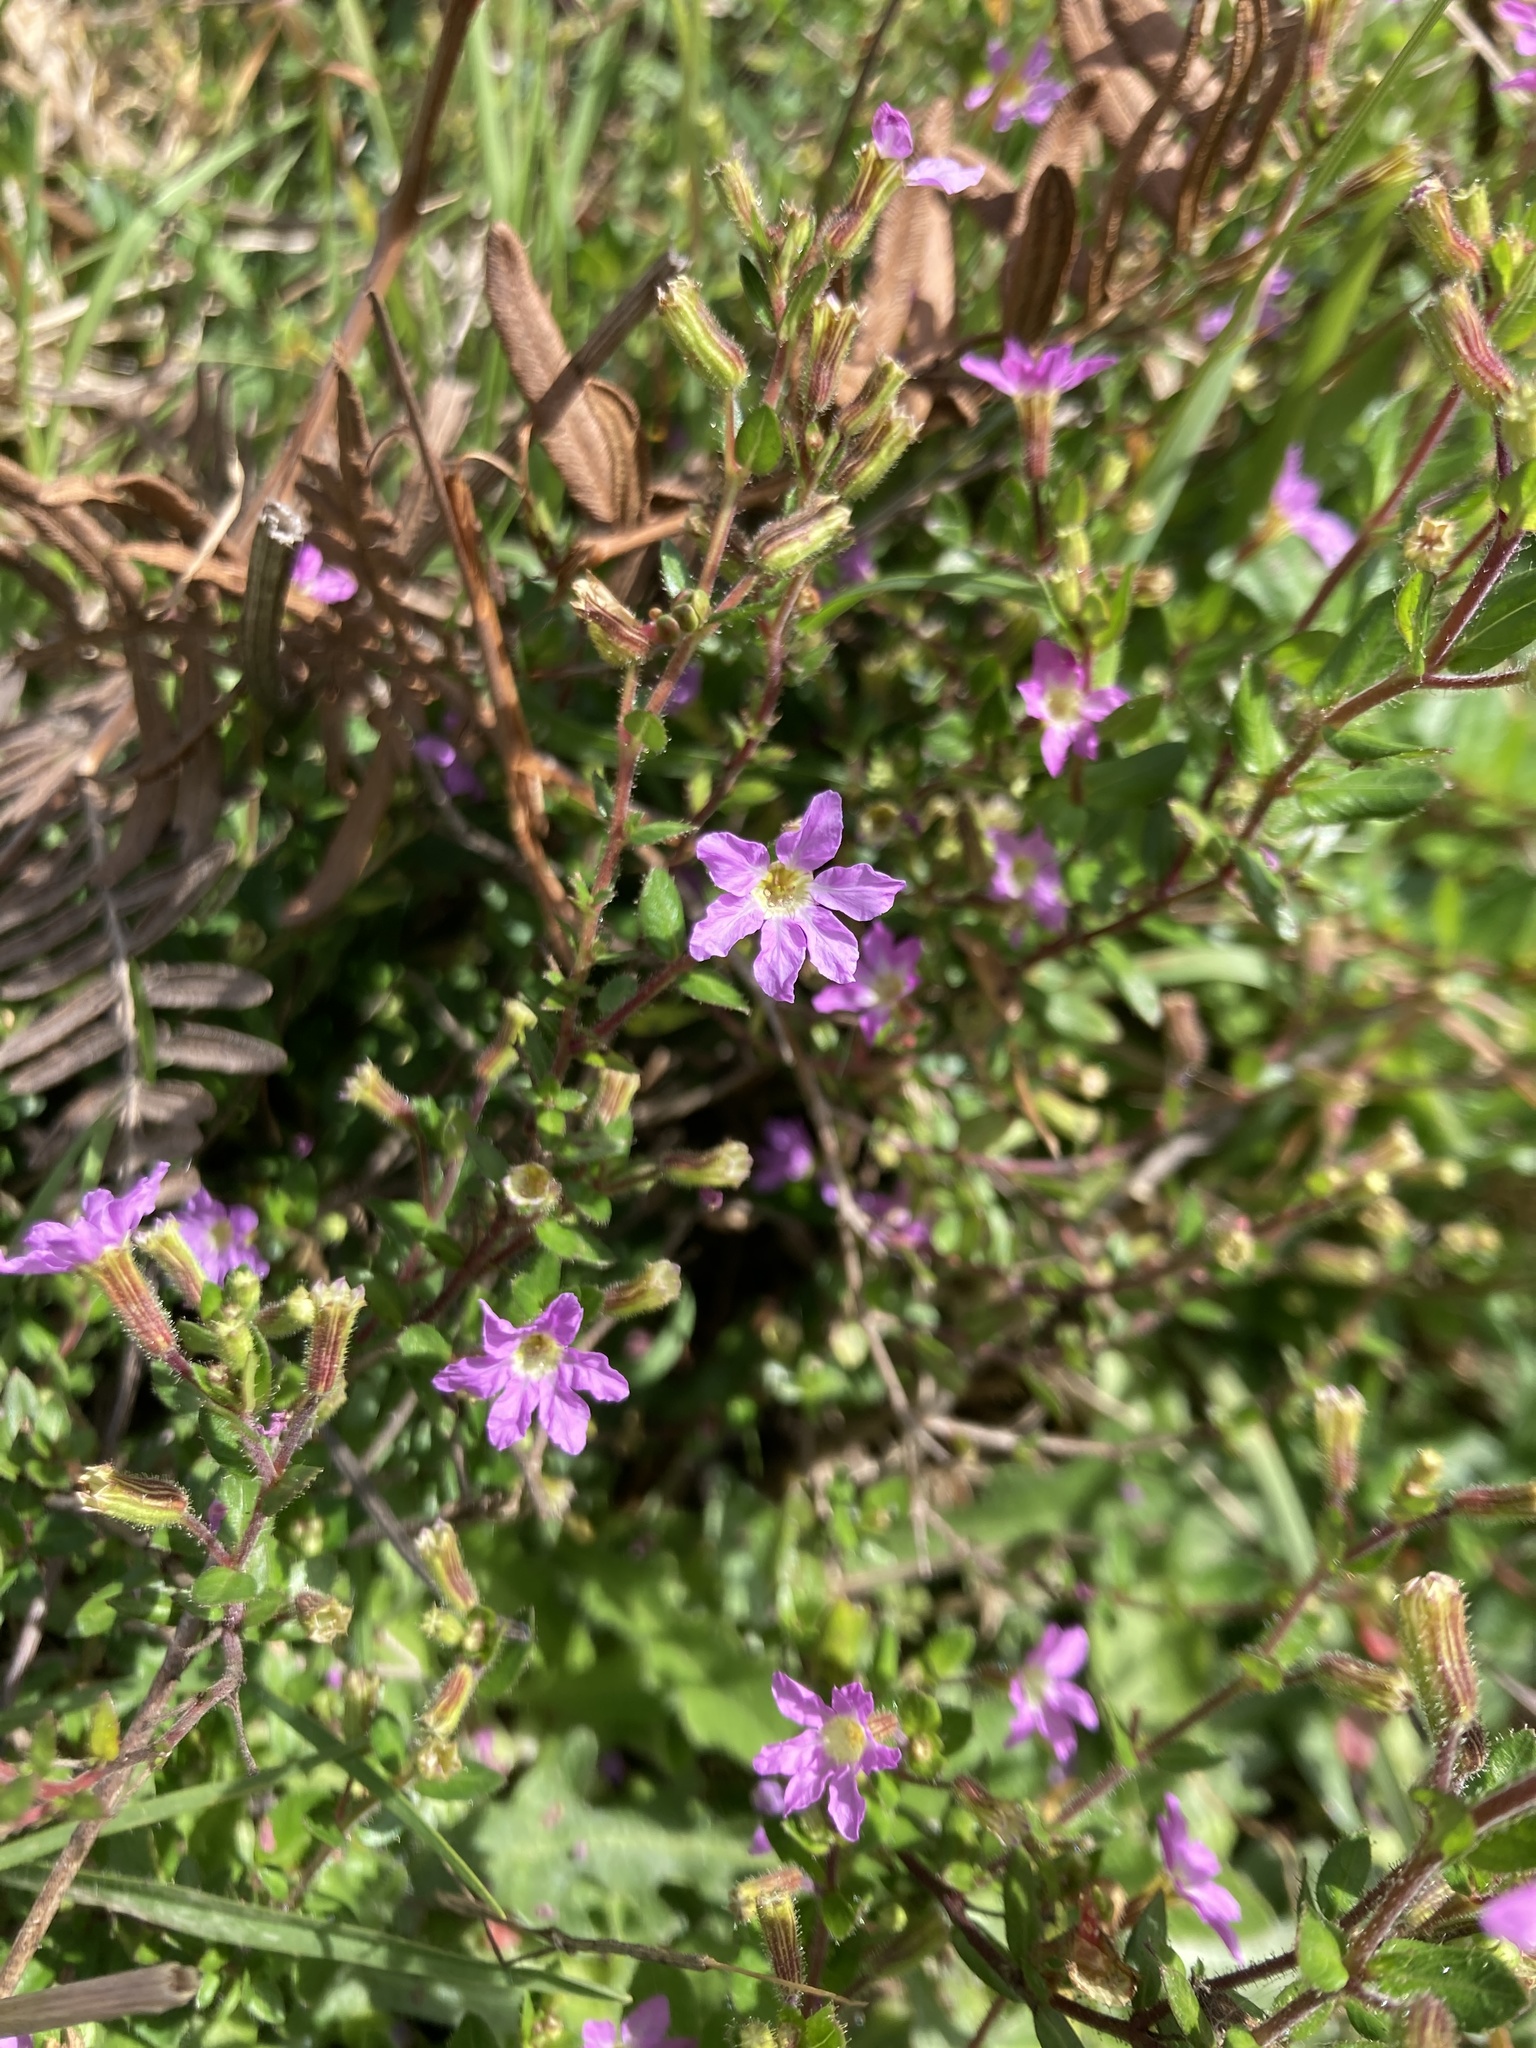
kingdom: Plantae
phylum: Tracheophyta
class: Magnoliopsida
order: Myrtales
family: Lythraceae
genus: Cuphea
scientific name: Cuphea hyssopifolia
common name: False heather
